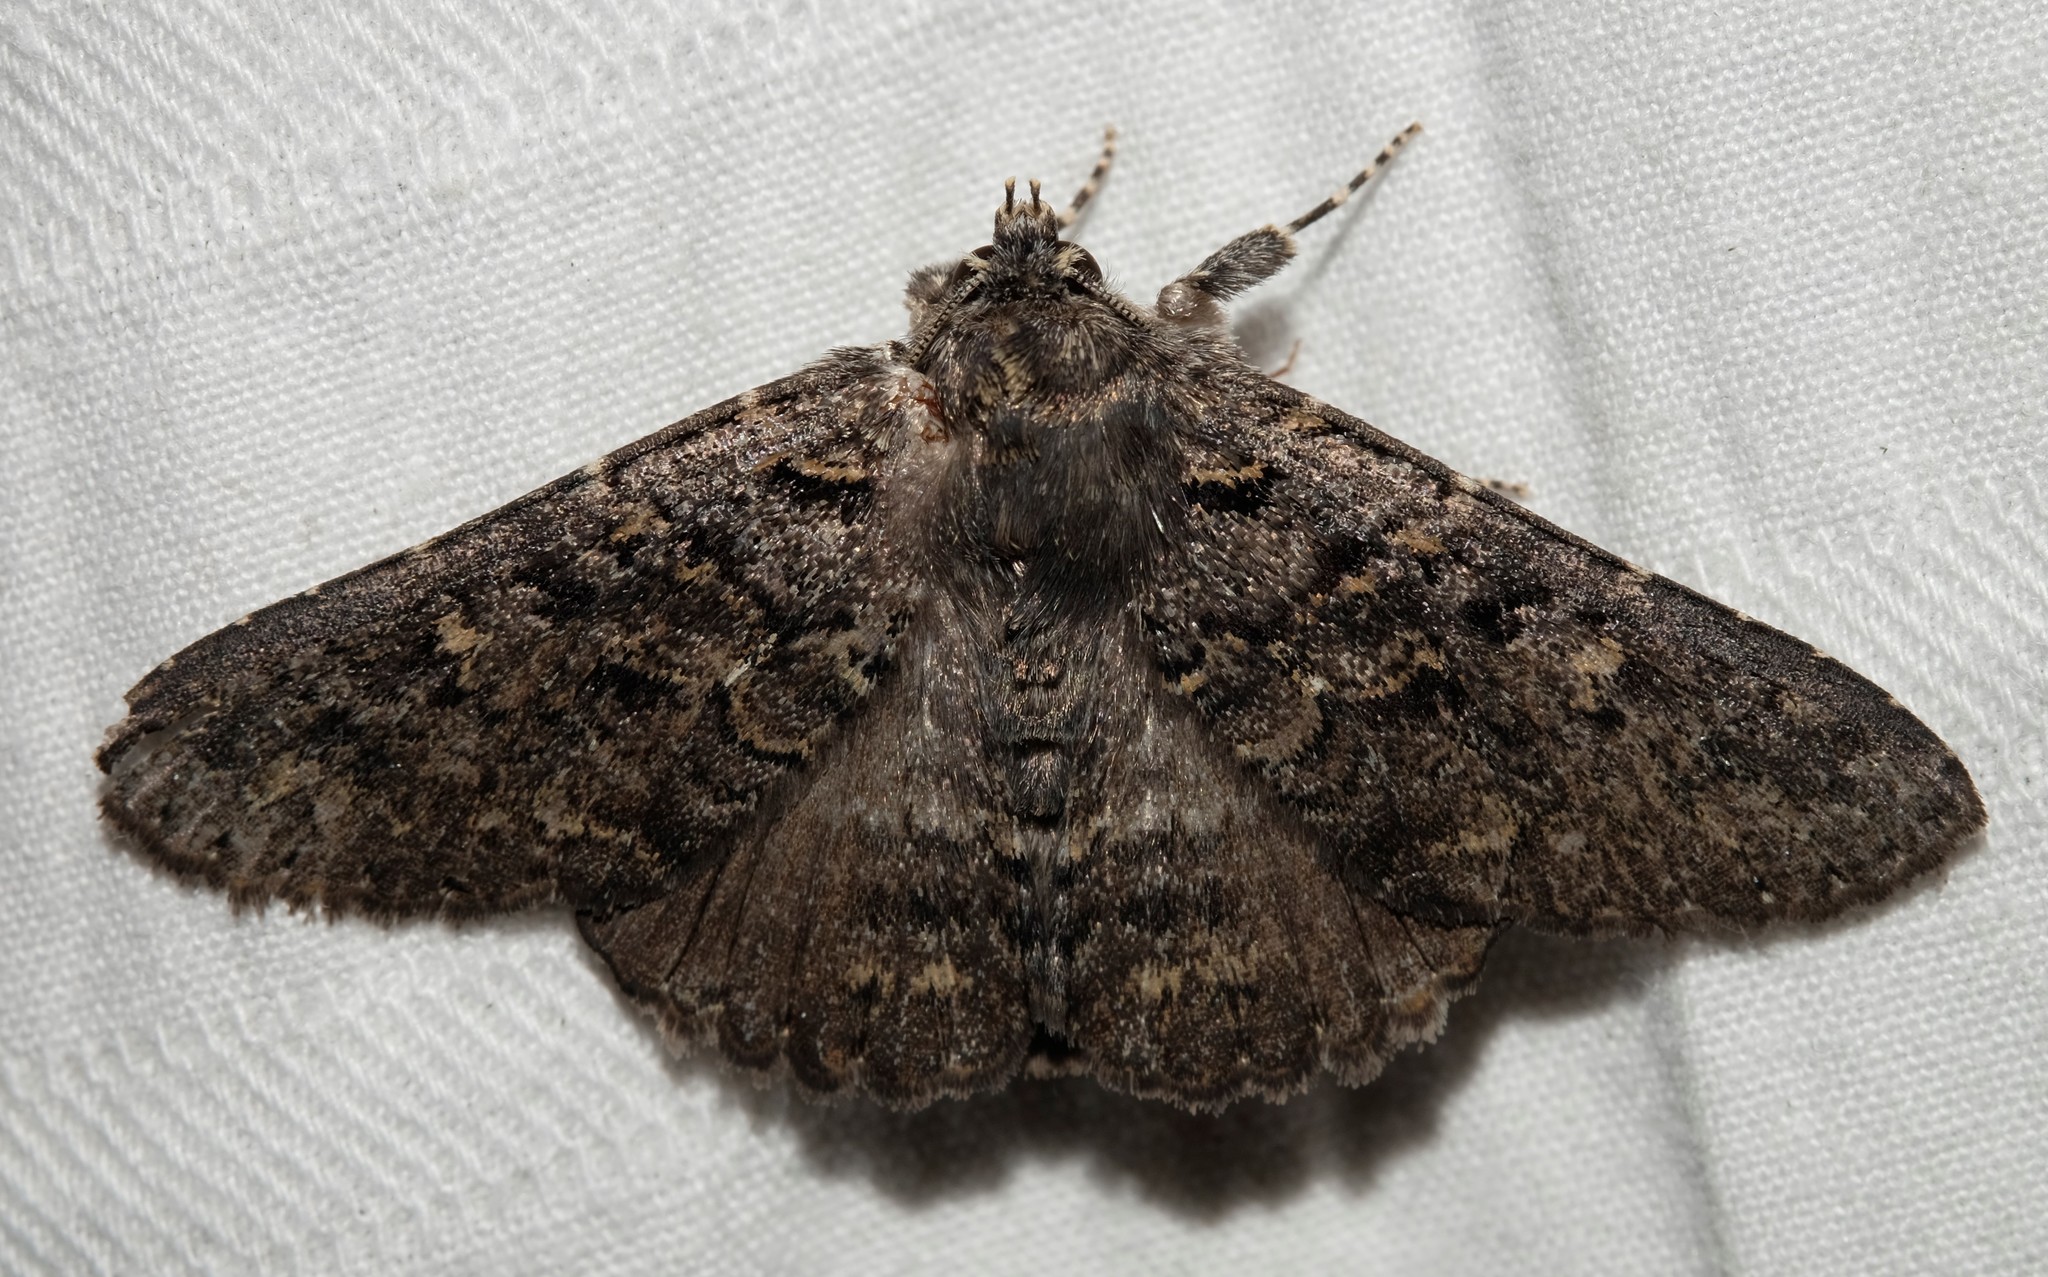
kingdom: Animalia
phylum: Arthropoda
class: Insecta
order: Lepidoptera
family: Erebidae
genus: Praxis
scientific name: Praxis edwardsii
